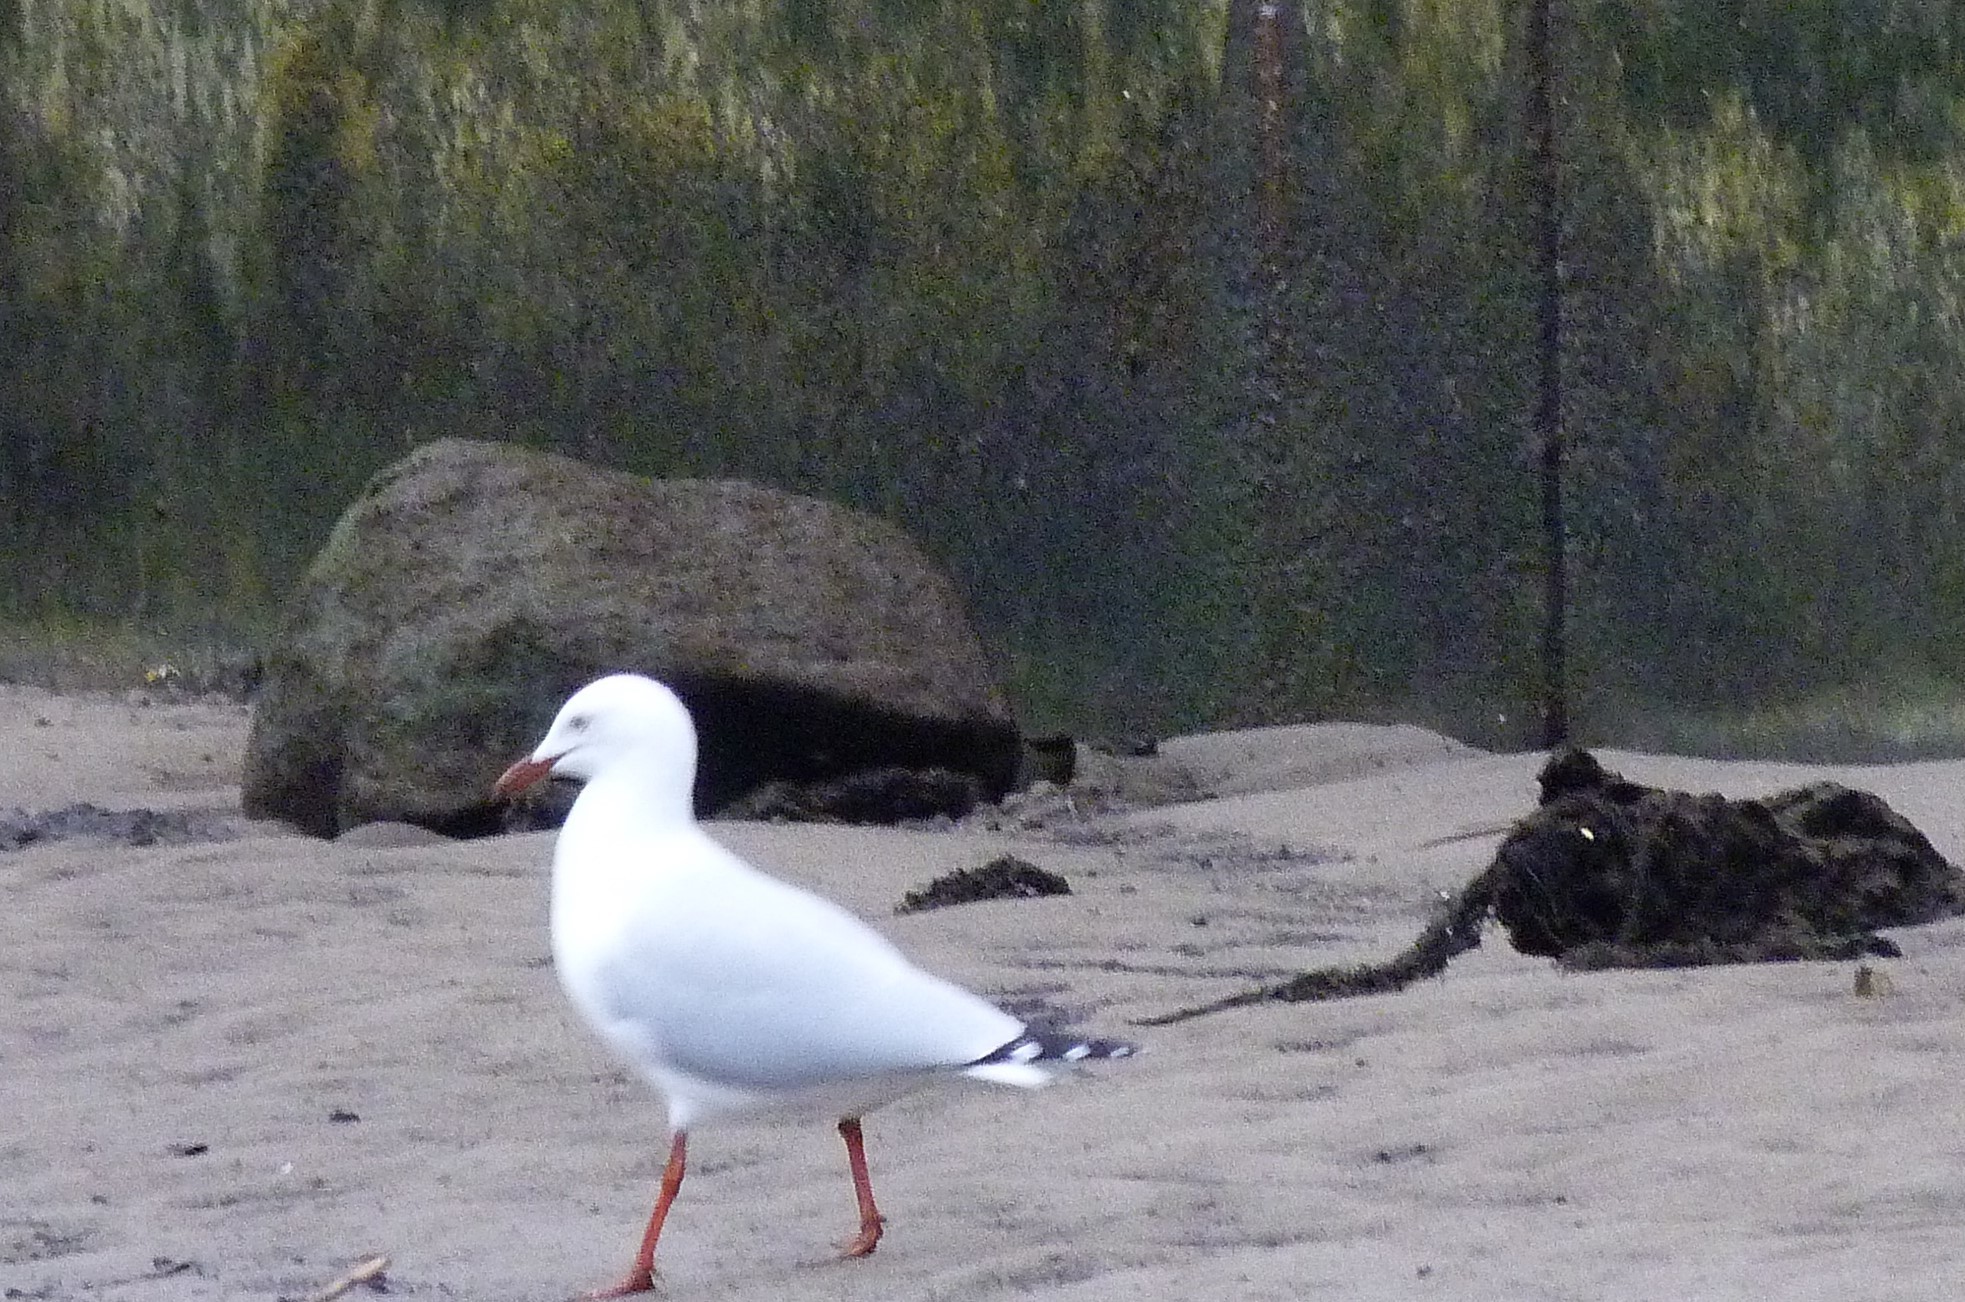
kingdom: Animalia
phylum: Chordata
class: Aves
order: Charadriiformes
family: Laridae
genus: Chroicocephalus
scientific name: Chroicocephalus novaehollandiae
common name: Silver gull
